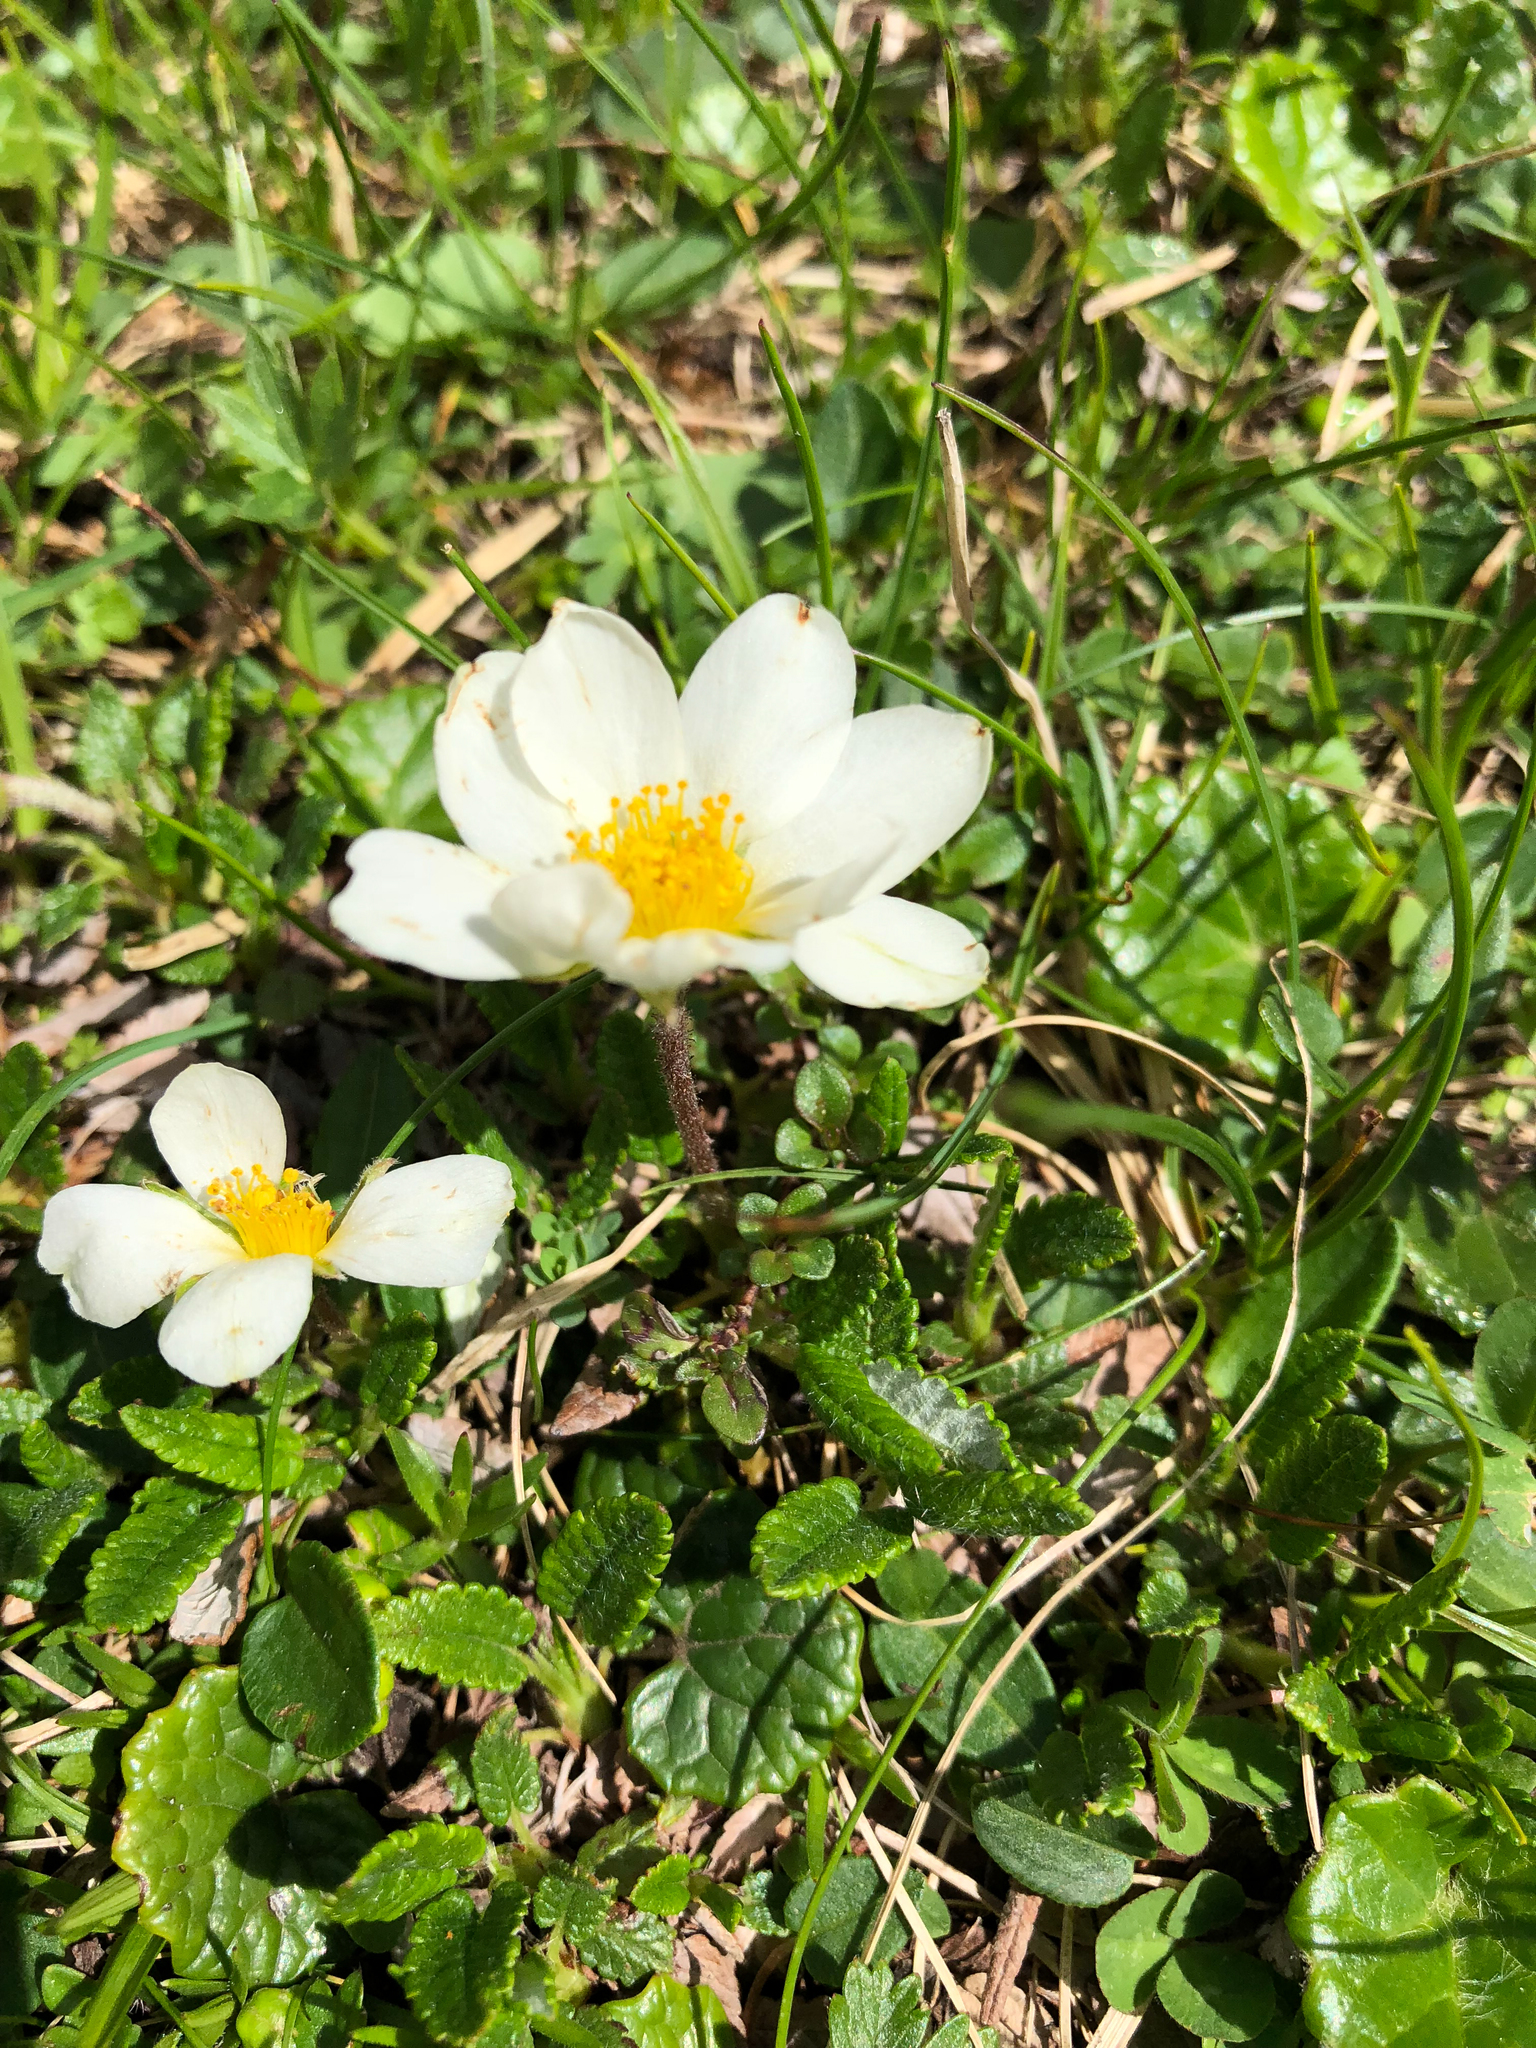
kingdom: Plantae
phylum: Tracheophyta
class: Magnoliopsida
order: Rosales
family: Rosaceae
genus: Dryas
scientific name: Dryas octopetala
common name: Eight-petal mountain-avens
